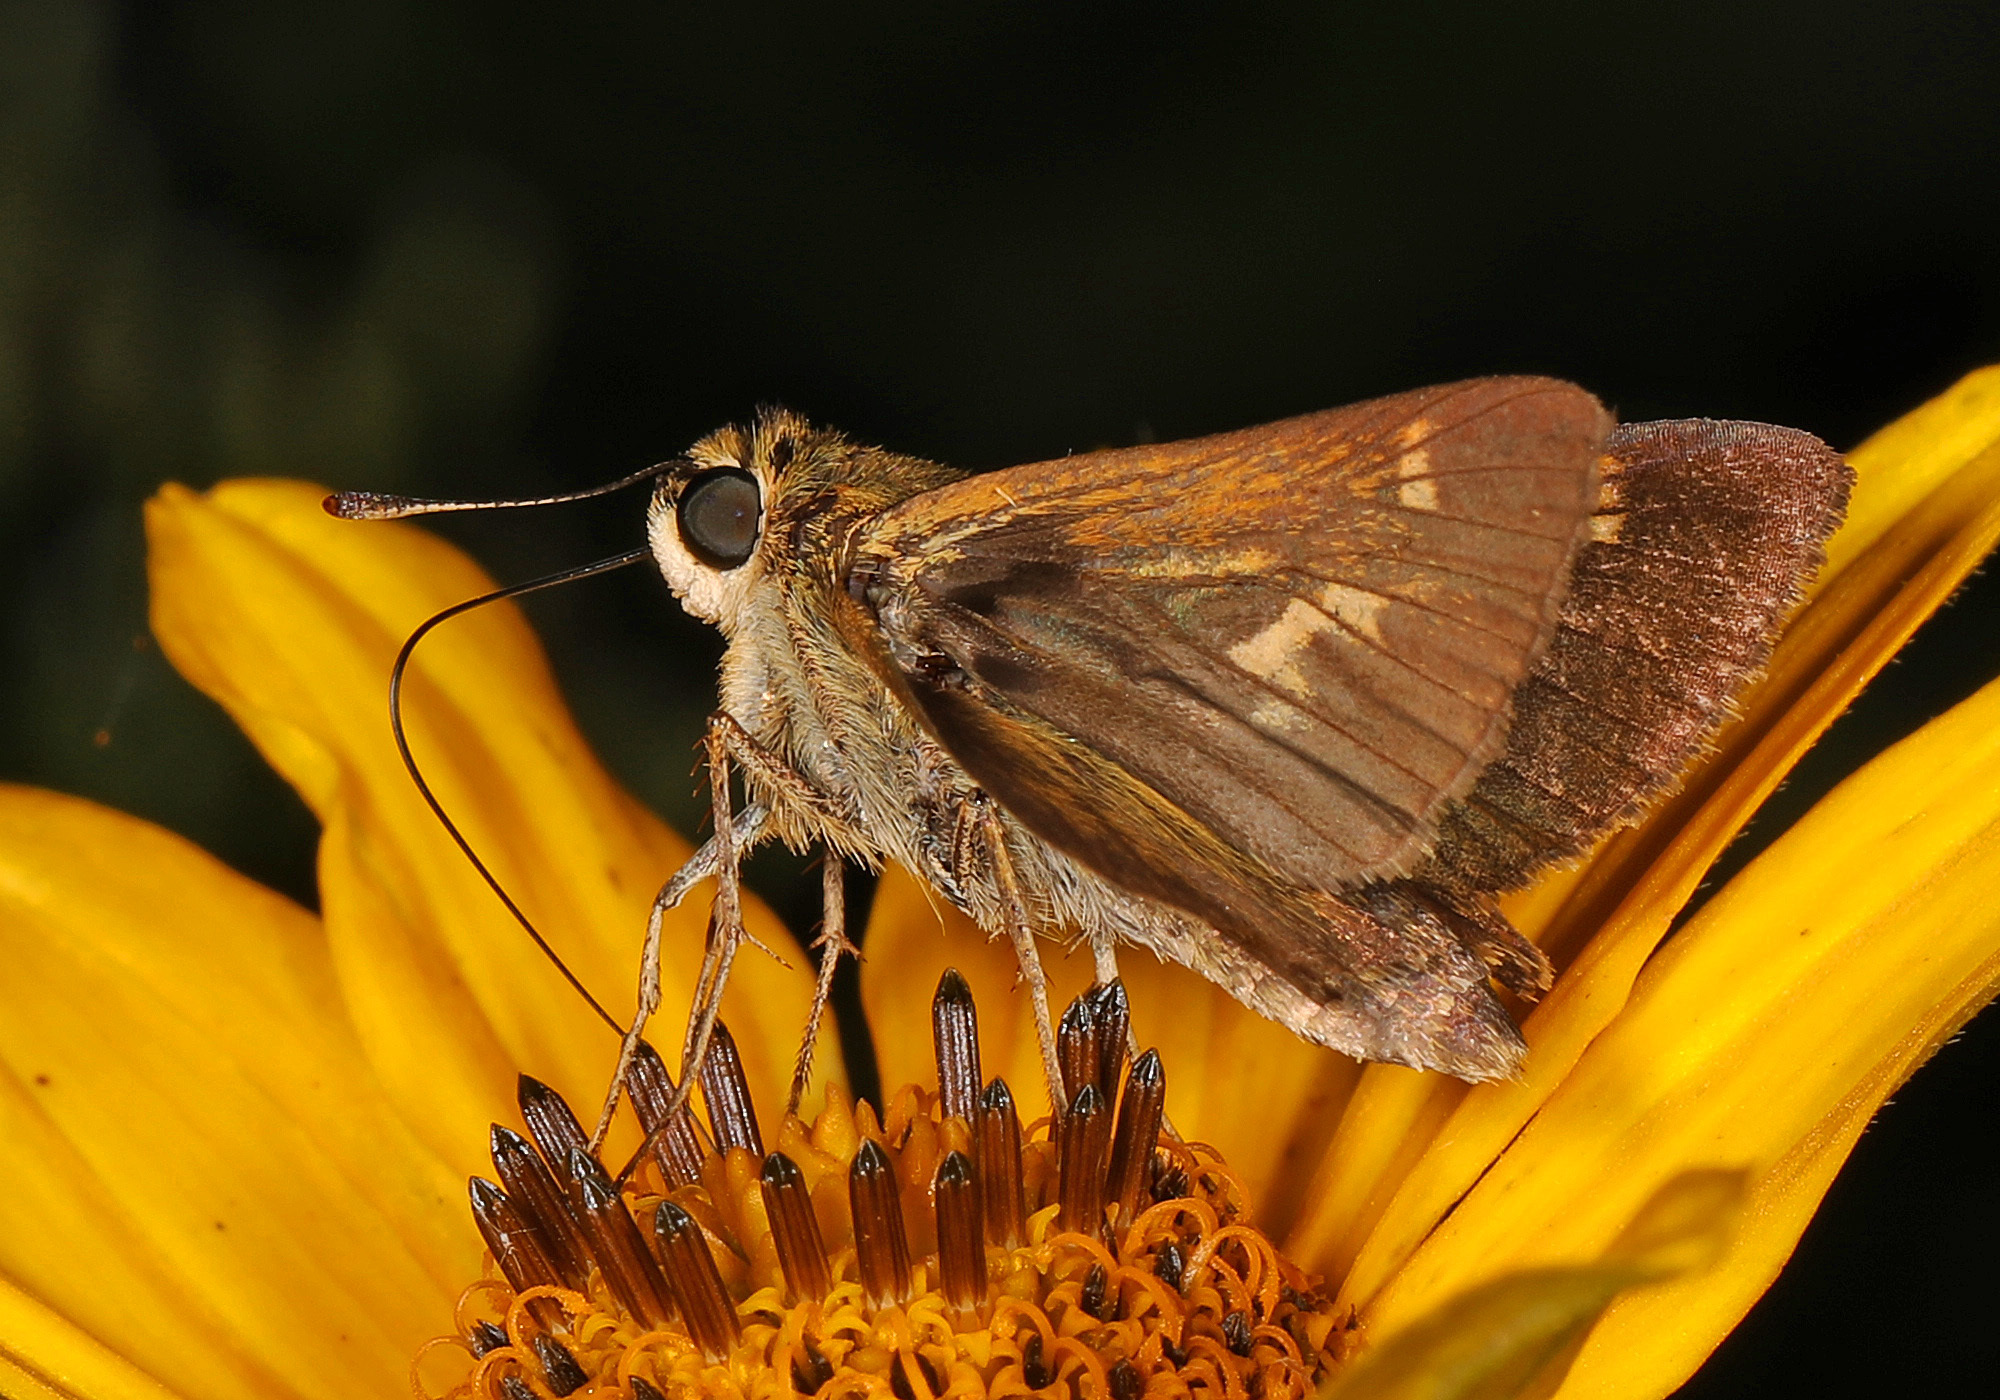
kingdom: Animalia
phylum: Arthropoda
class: Insecta
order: Lepidoptera
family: Hesperiidae
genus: Vernia
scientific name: Vernia verna
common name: Little glassywing
